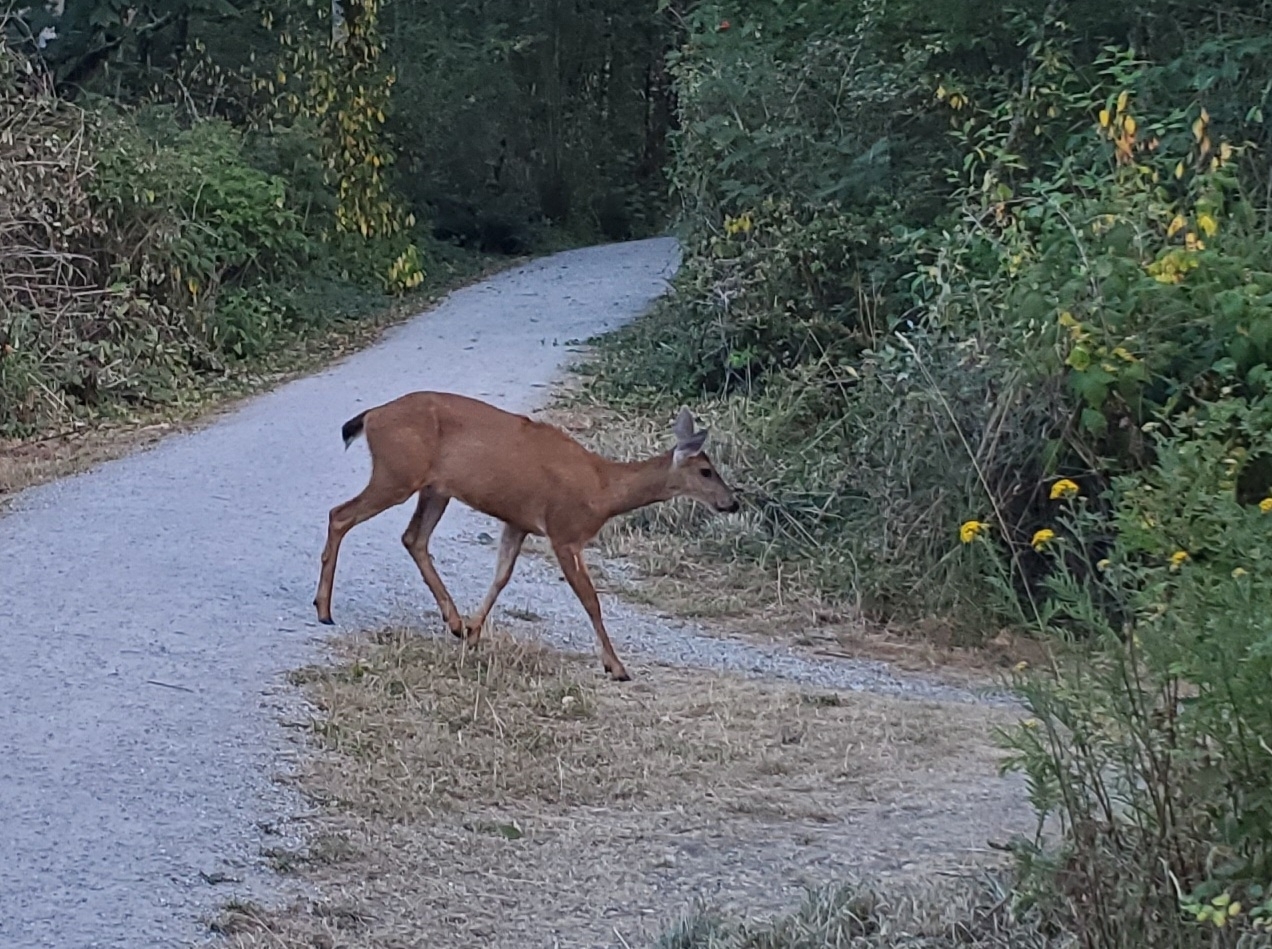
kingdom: Animalia
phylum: Chordata
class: Mammalia
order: Artiodactyla
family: Cervidae
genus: Odocoileus
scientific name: Odocoileus hemionus
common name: Mule deer
